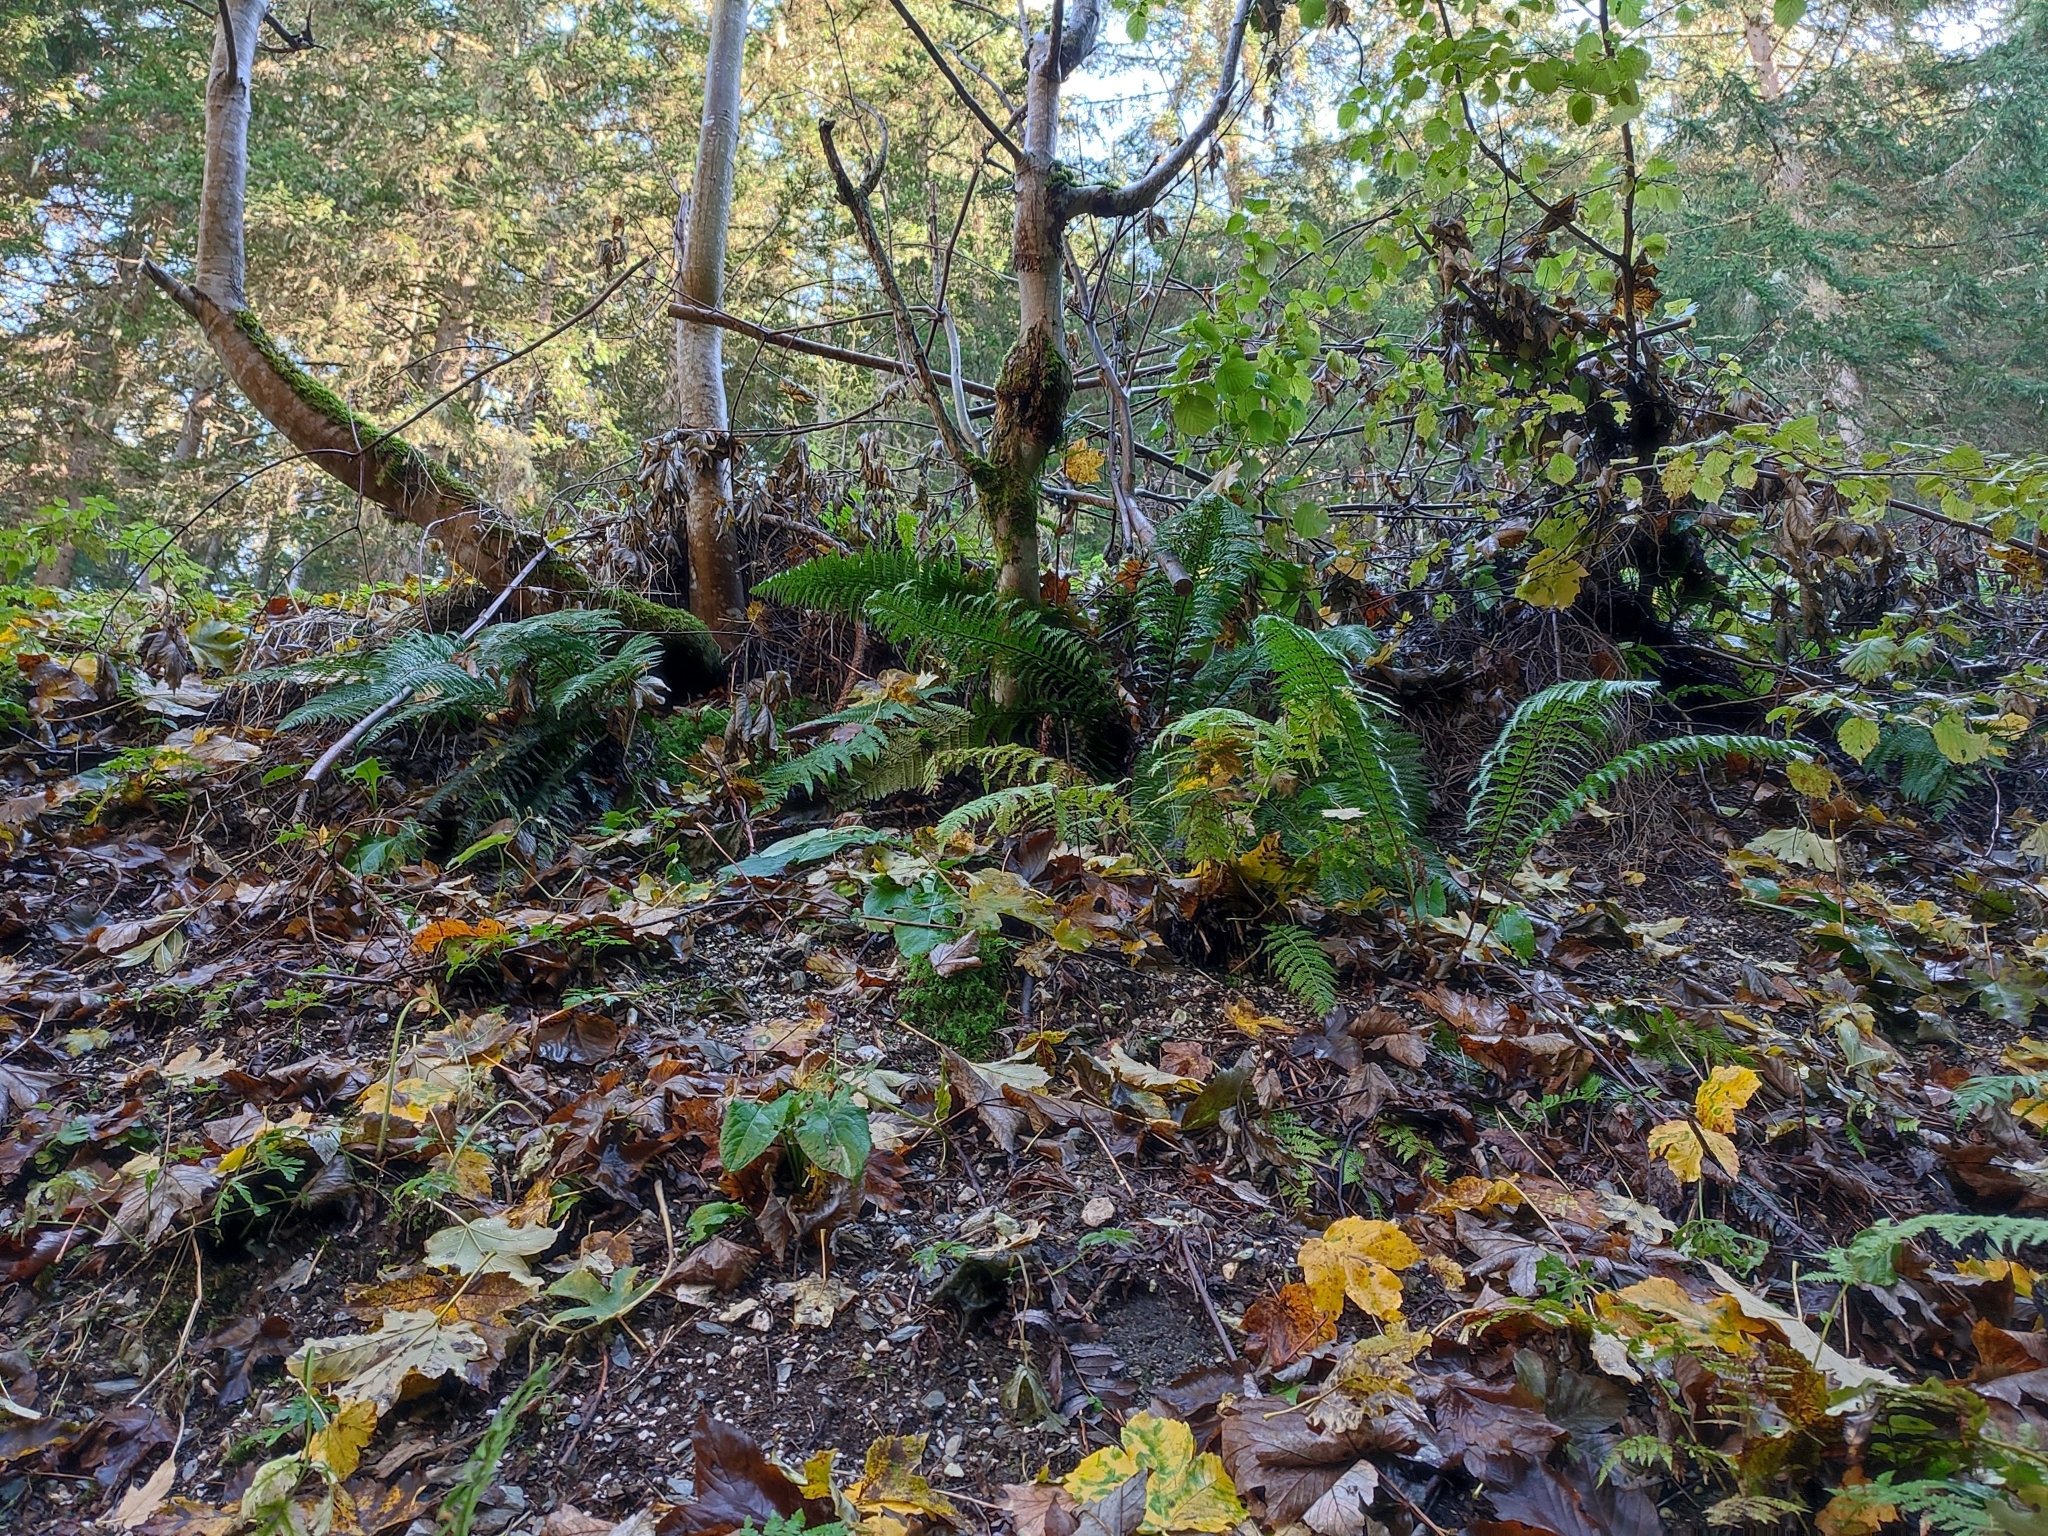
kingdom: Plantae
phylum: Tracheophyta
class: Polypodiopsida
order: Polypodiales
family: Dryopteridaceae
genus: Polystichum
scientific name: Polystichum aculeatum
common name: Hard shield-fern
